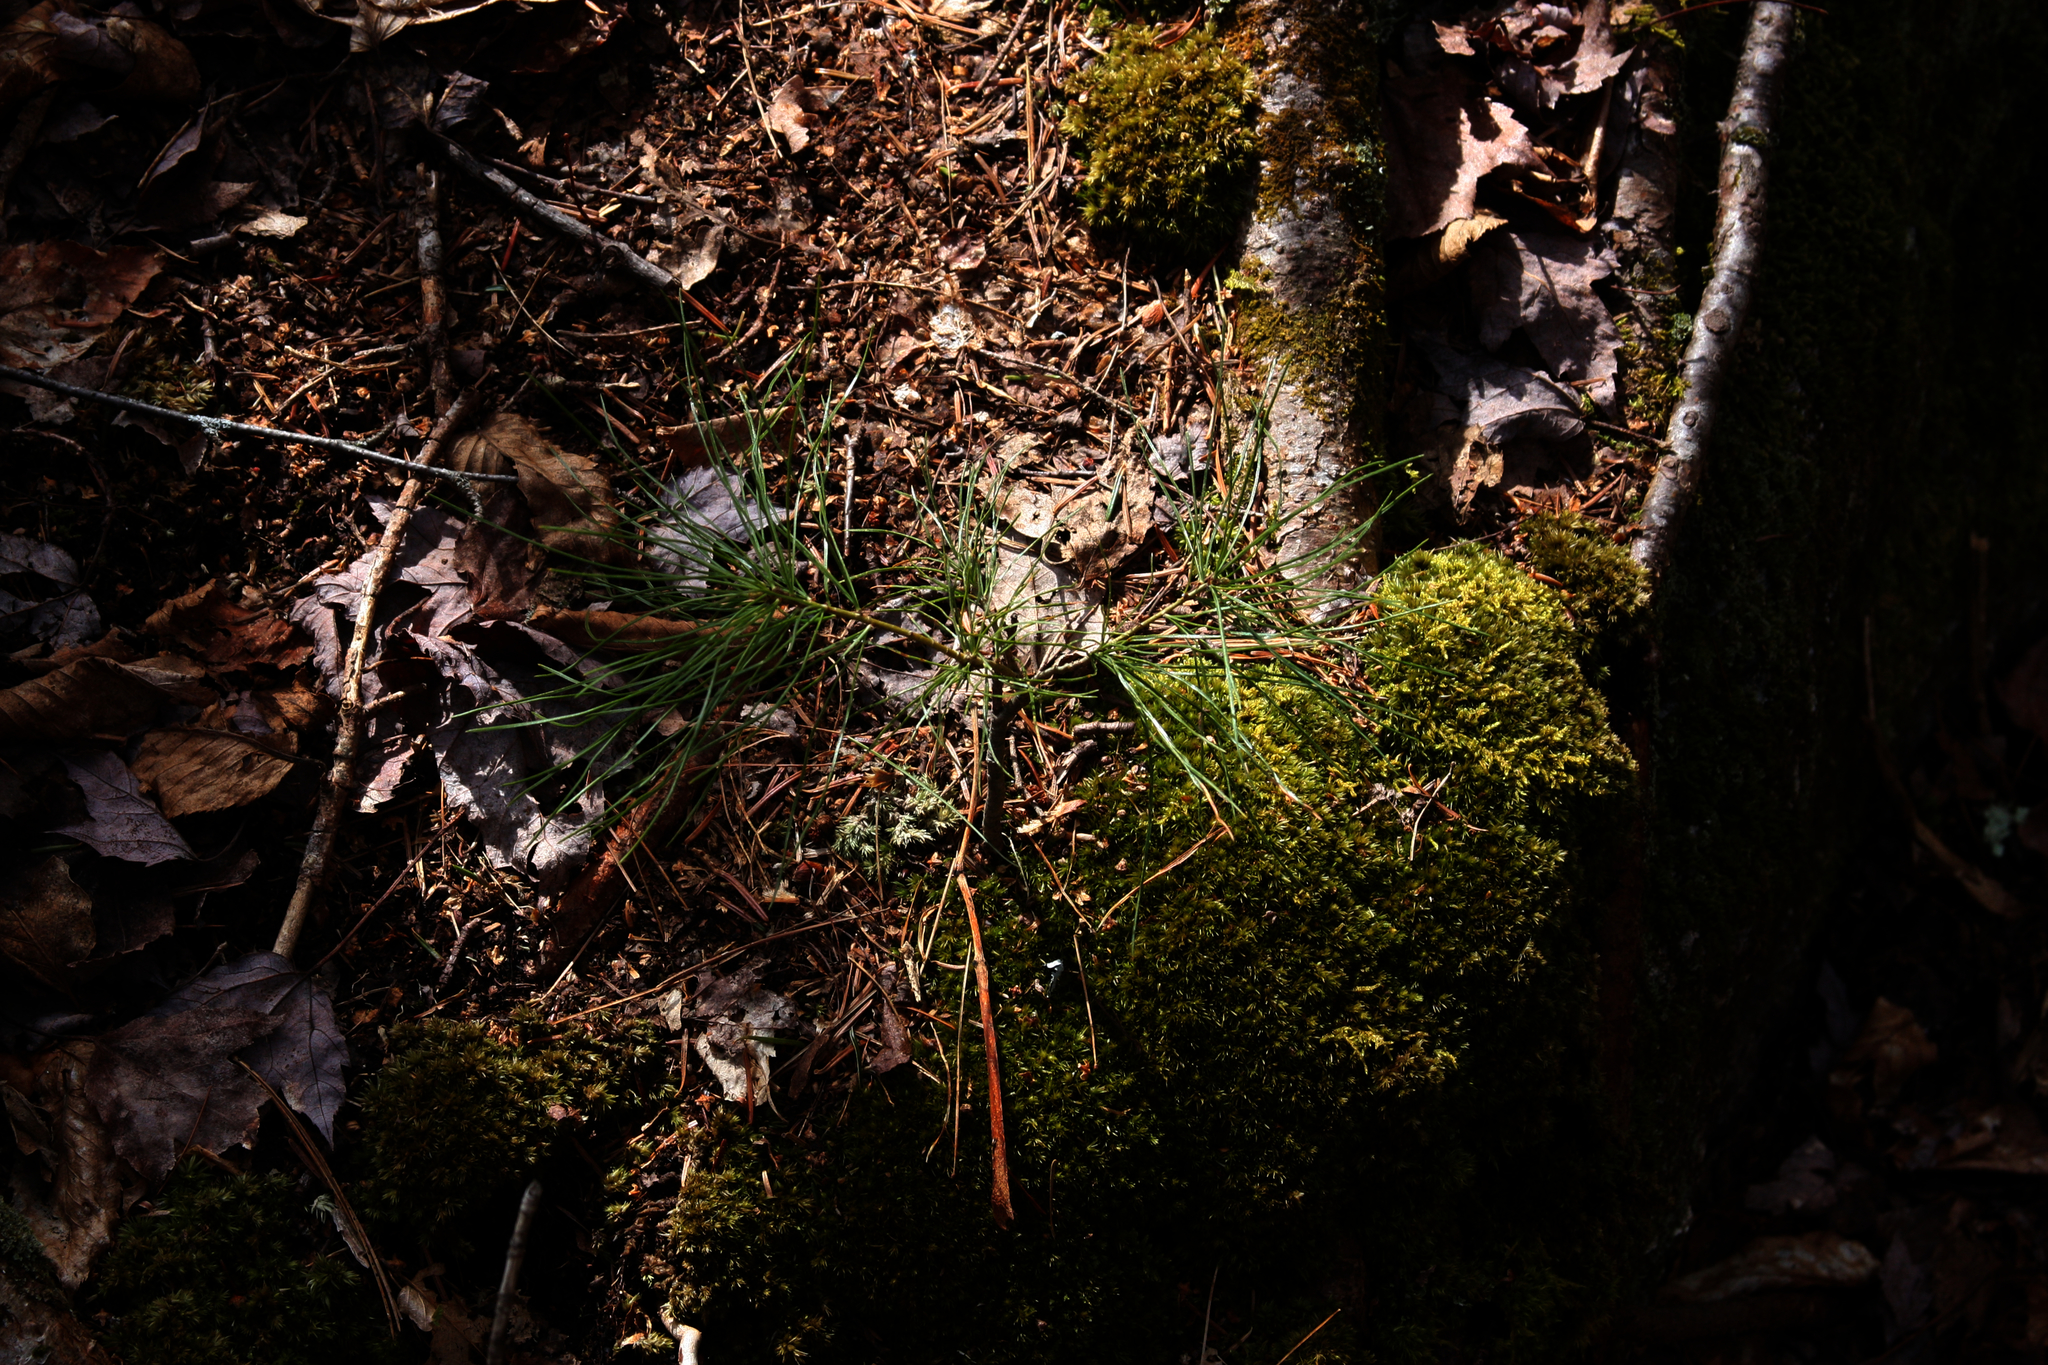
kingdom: Plantae
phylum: Tracheophyta
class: Pinopsida
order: Pinales
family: Pinaceae
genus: Pinus
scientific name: Pinus strobus
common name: Weymouth pine
